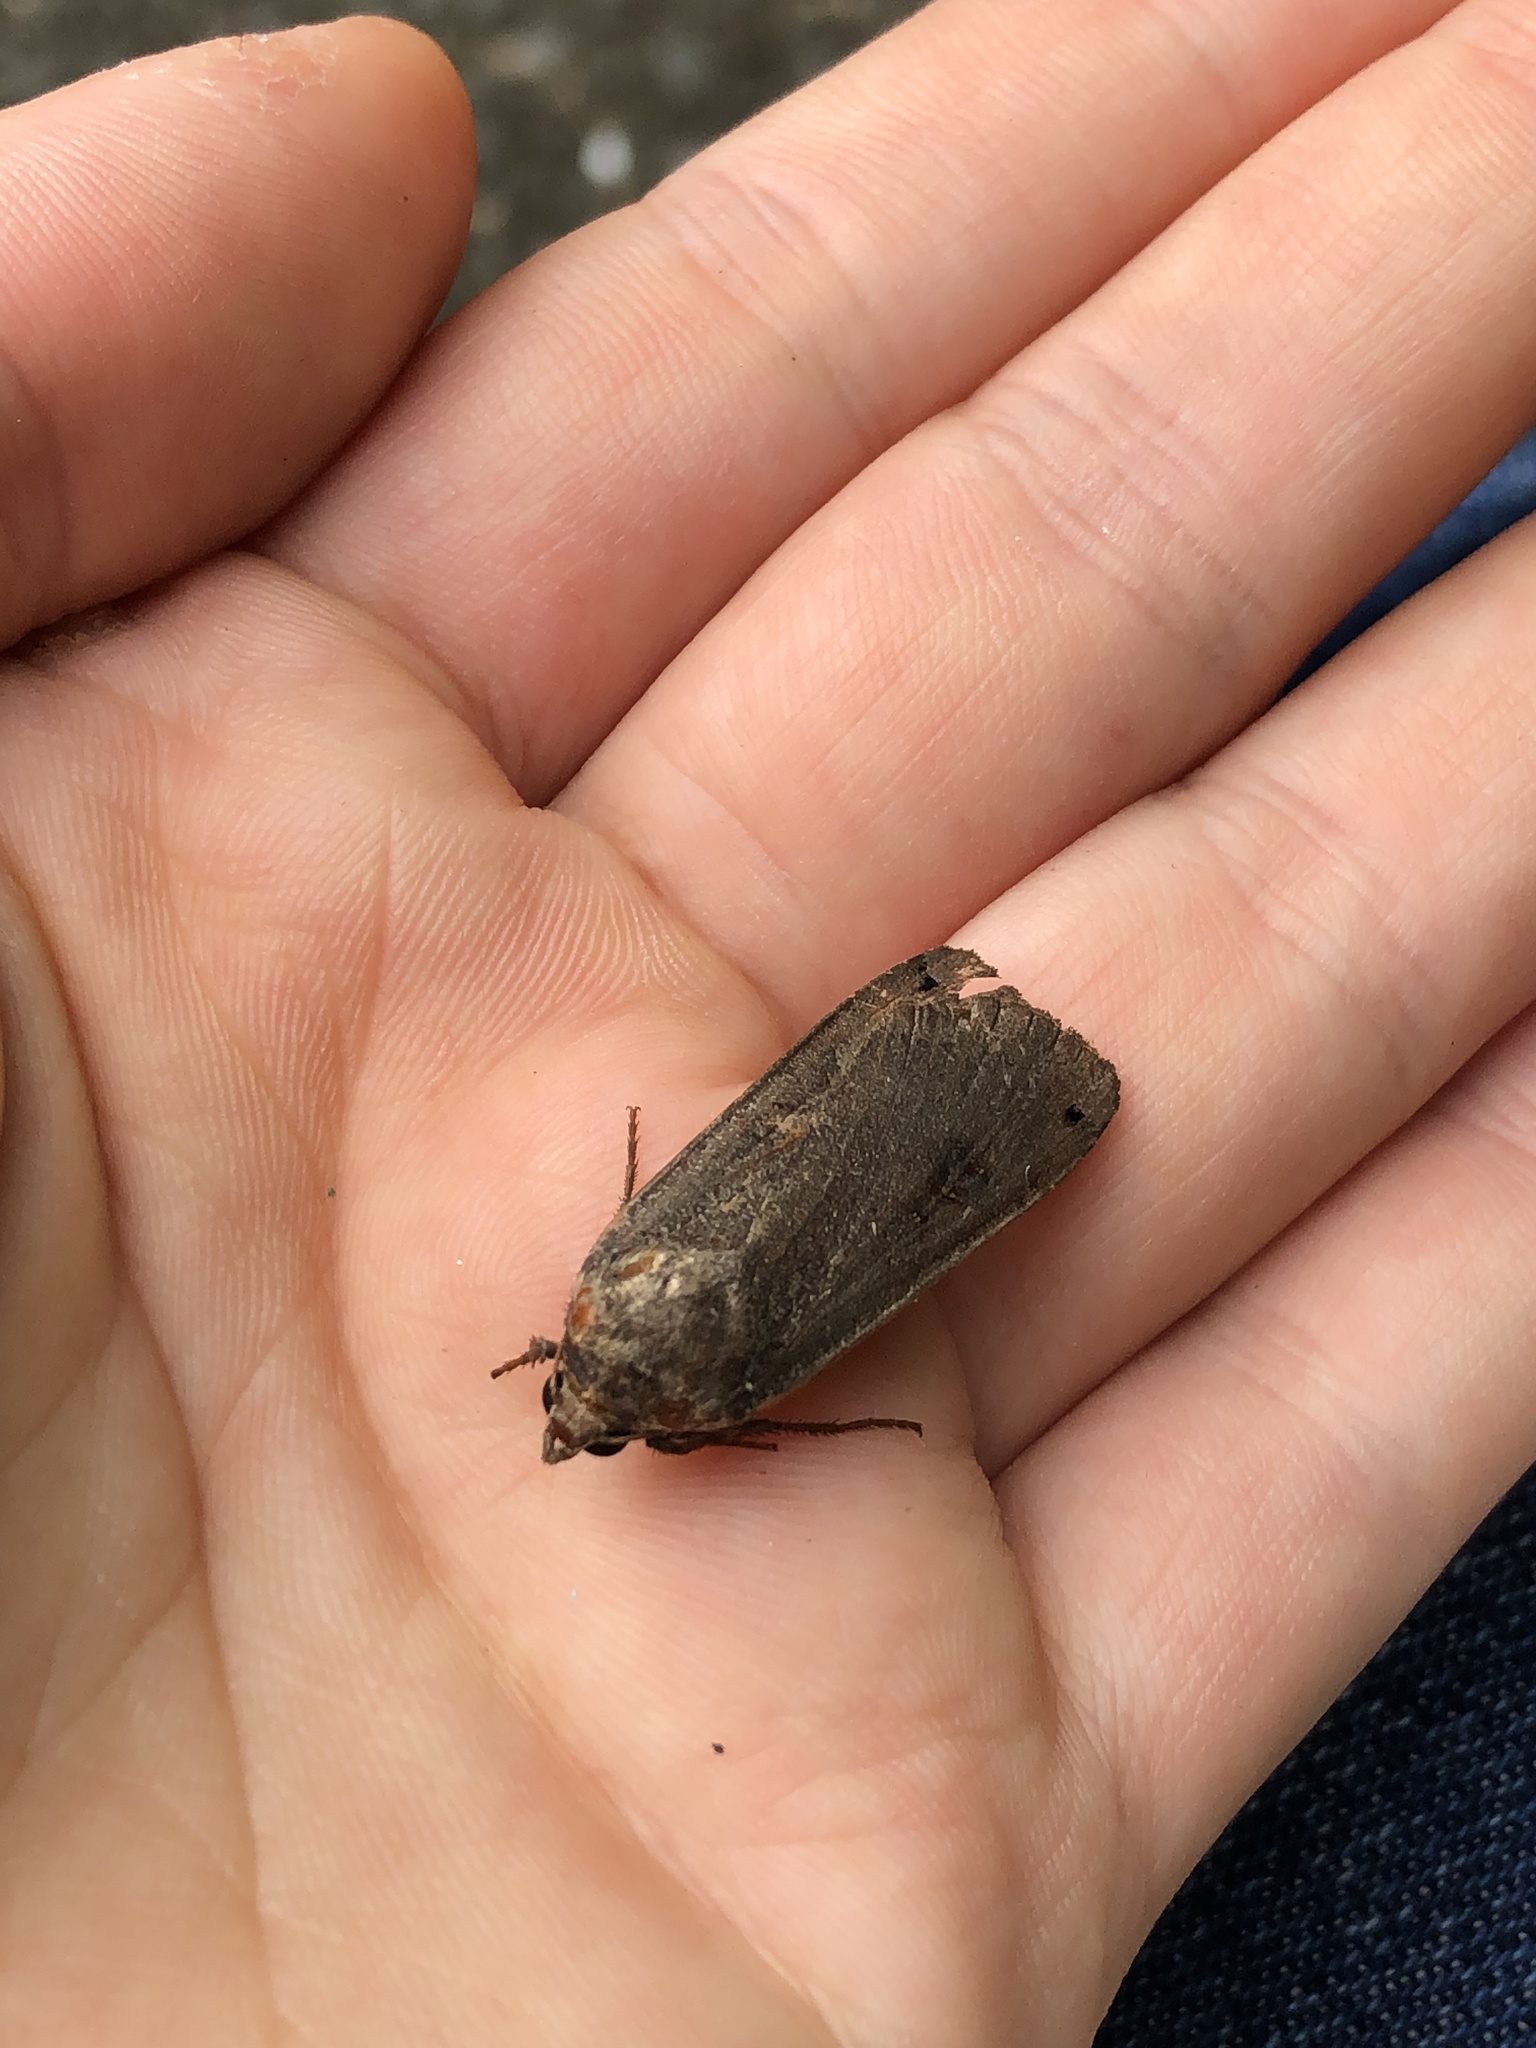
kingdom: Animalia
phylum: Arthropoda
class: Insecta
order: Lepidoptera
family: Noctuidae
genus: Noctua
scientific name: Noctua pronuba
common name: Large yellow underwing
